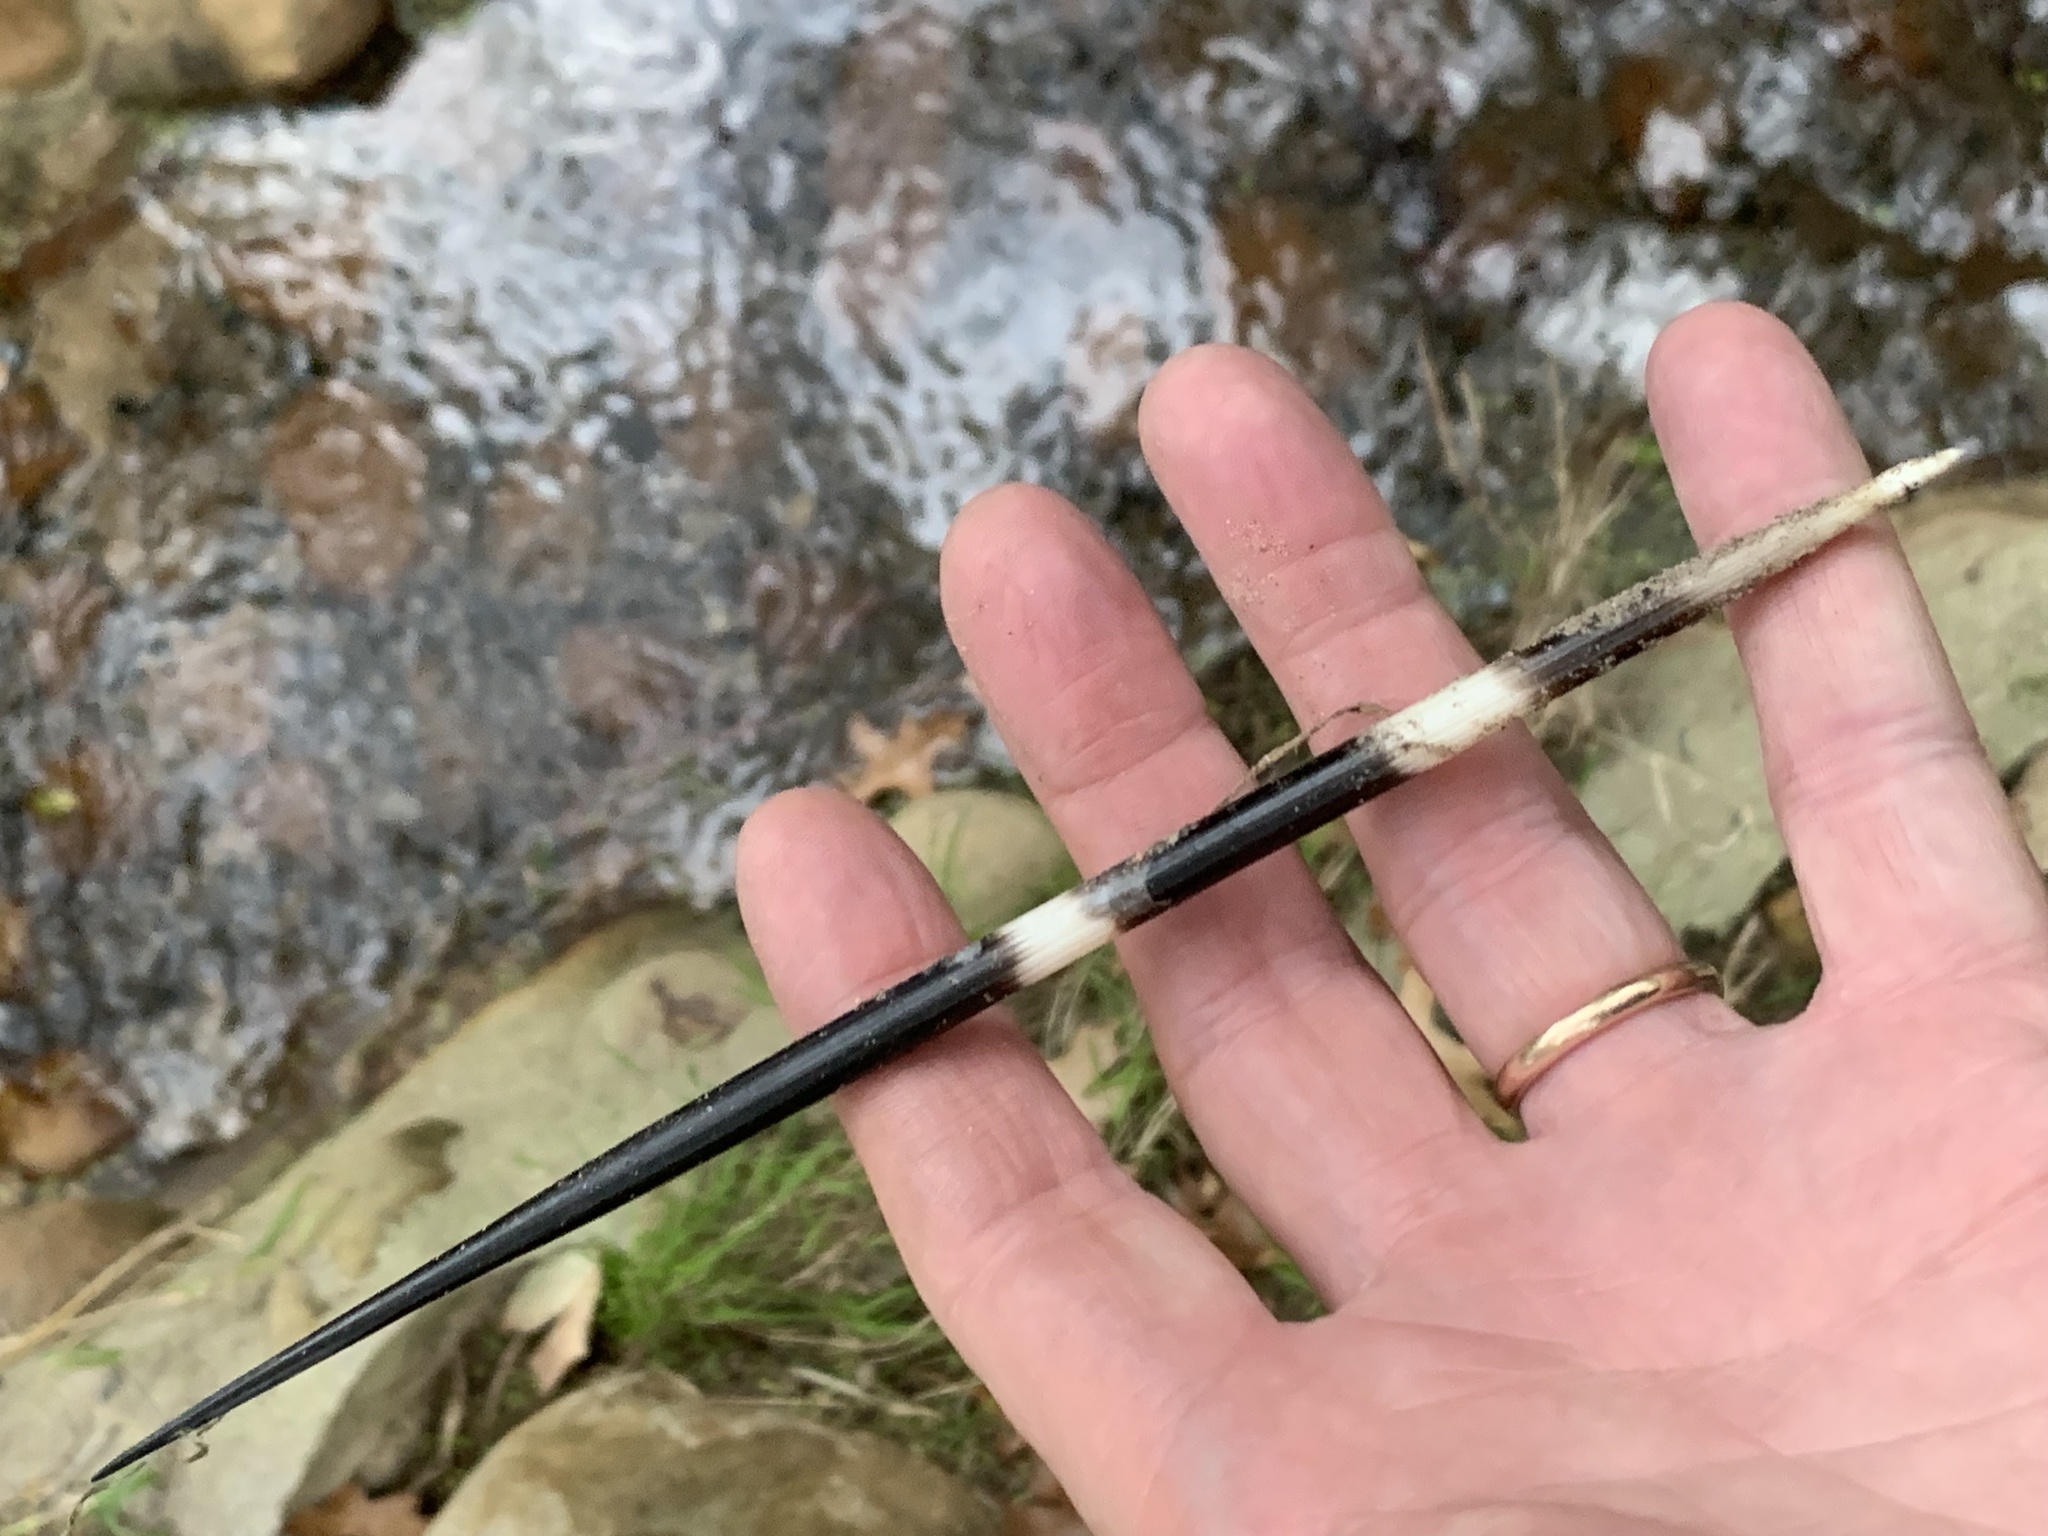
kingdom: Animalia
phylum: Chordata
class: Mammalia
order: Rodentia
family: Hystricidae
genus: Hystrix
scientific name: Hystrix africaeaustralis
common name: Cape porcupine
